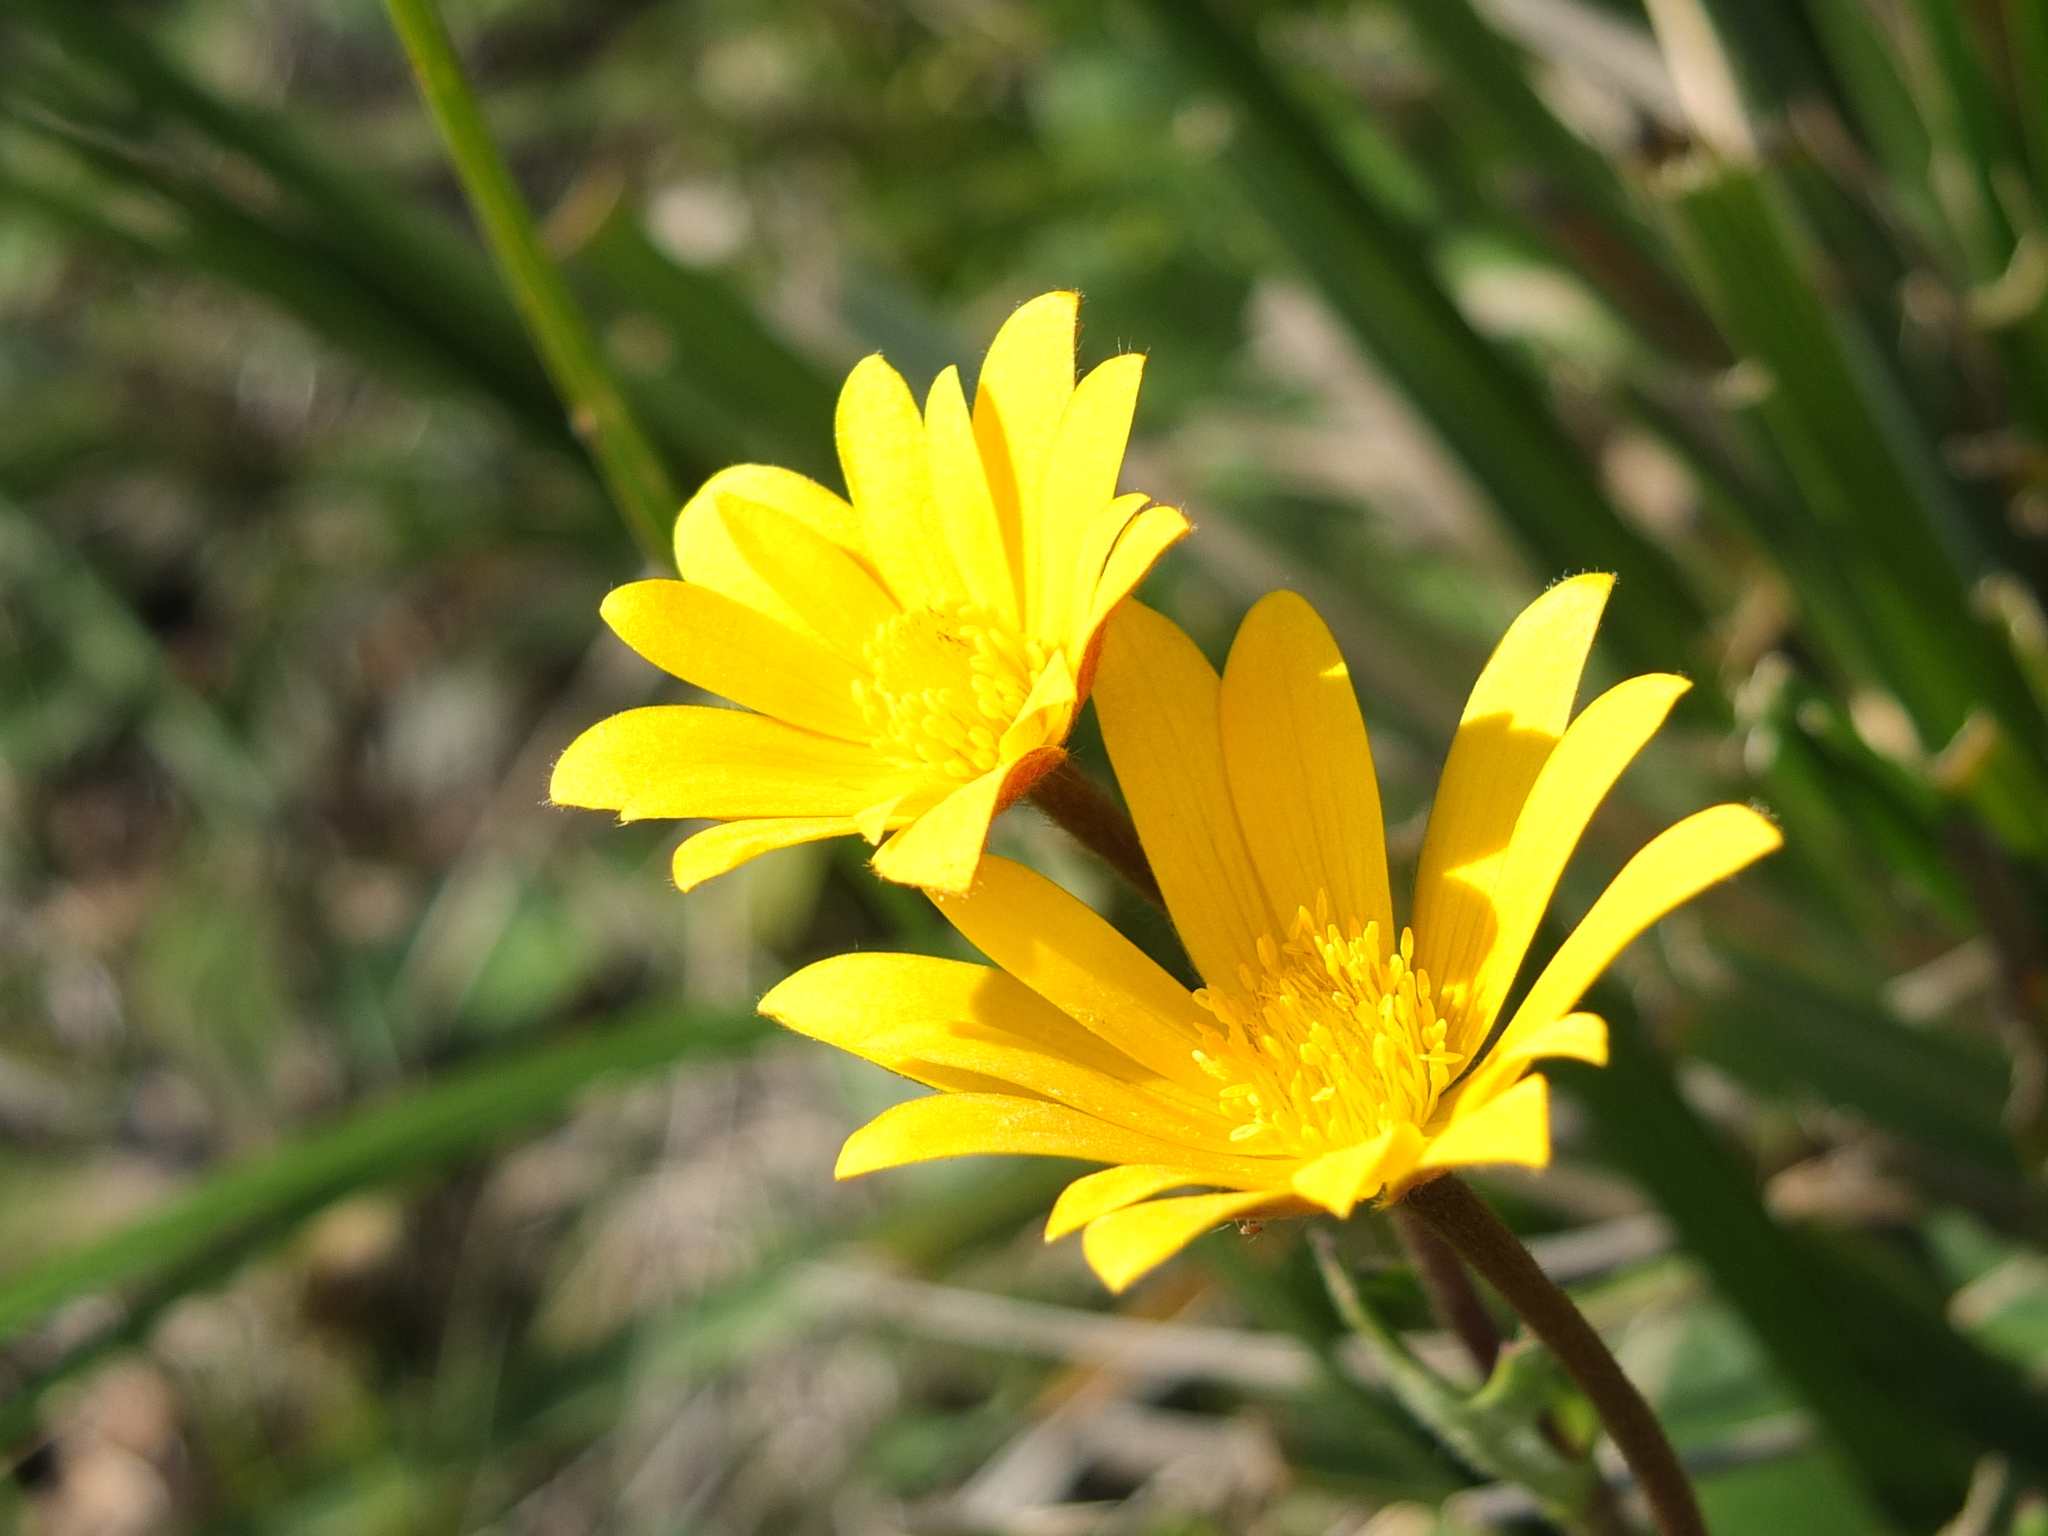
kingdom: Plantae
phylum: Tracheophyta
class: Magnoliopsida
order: Ranunculales
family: Ranunculaceae
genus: Anemone
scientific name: Anemone palmata
